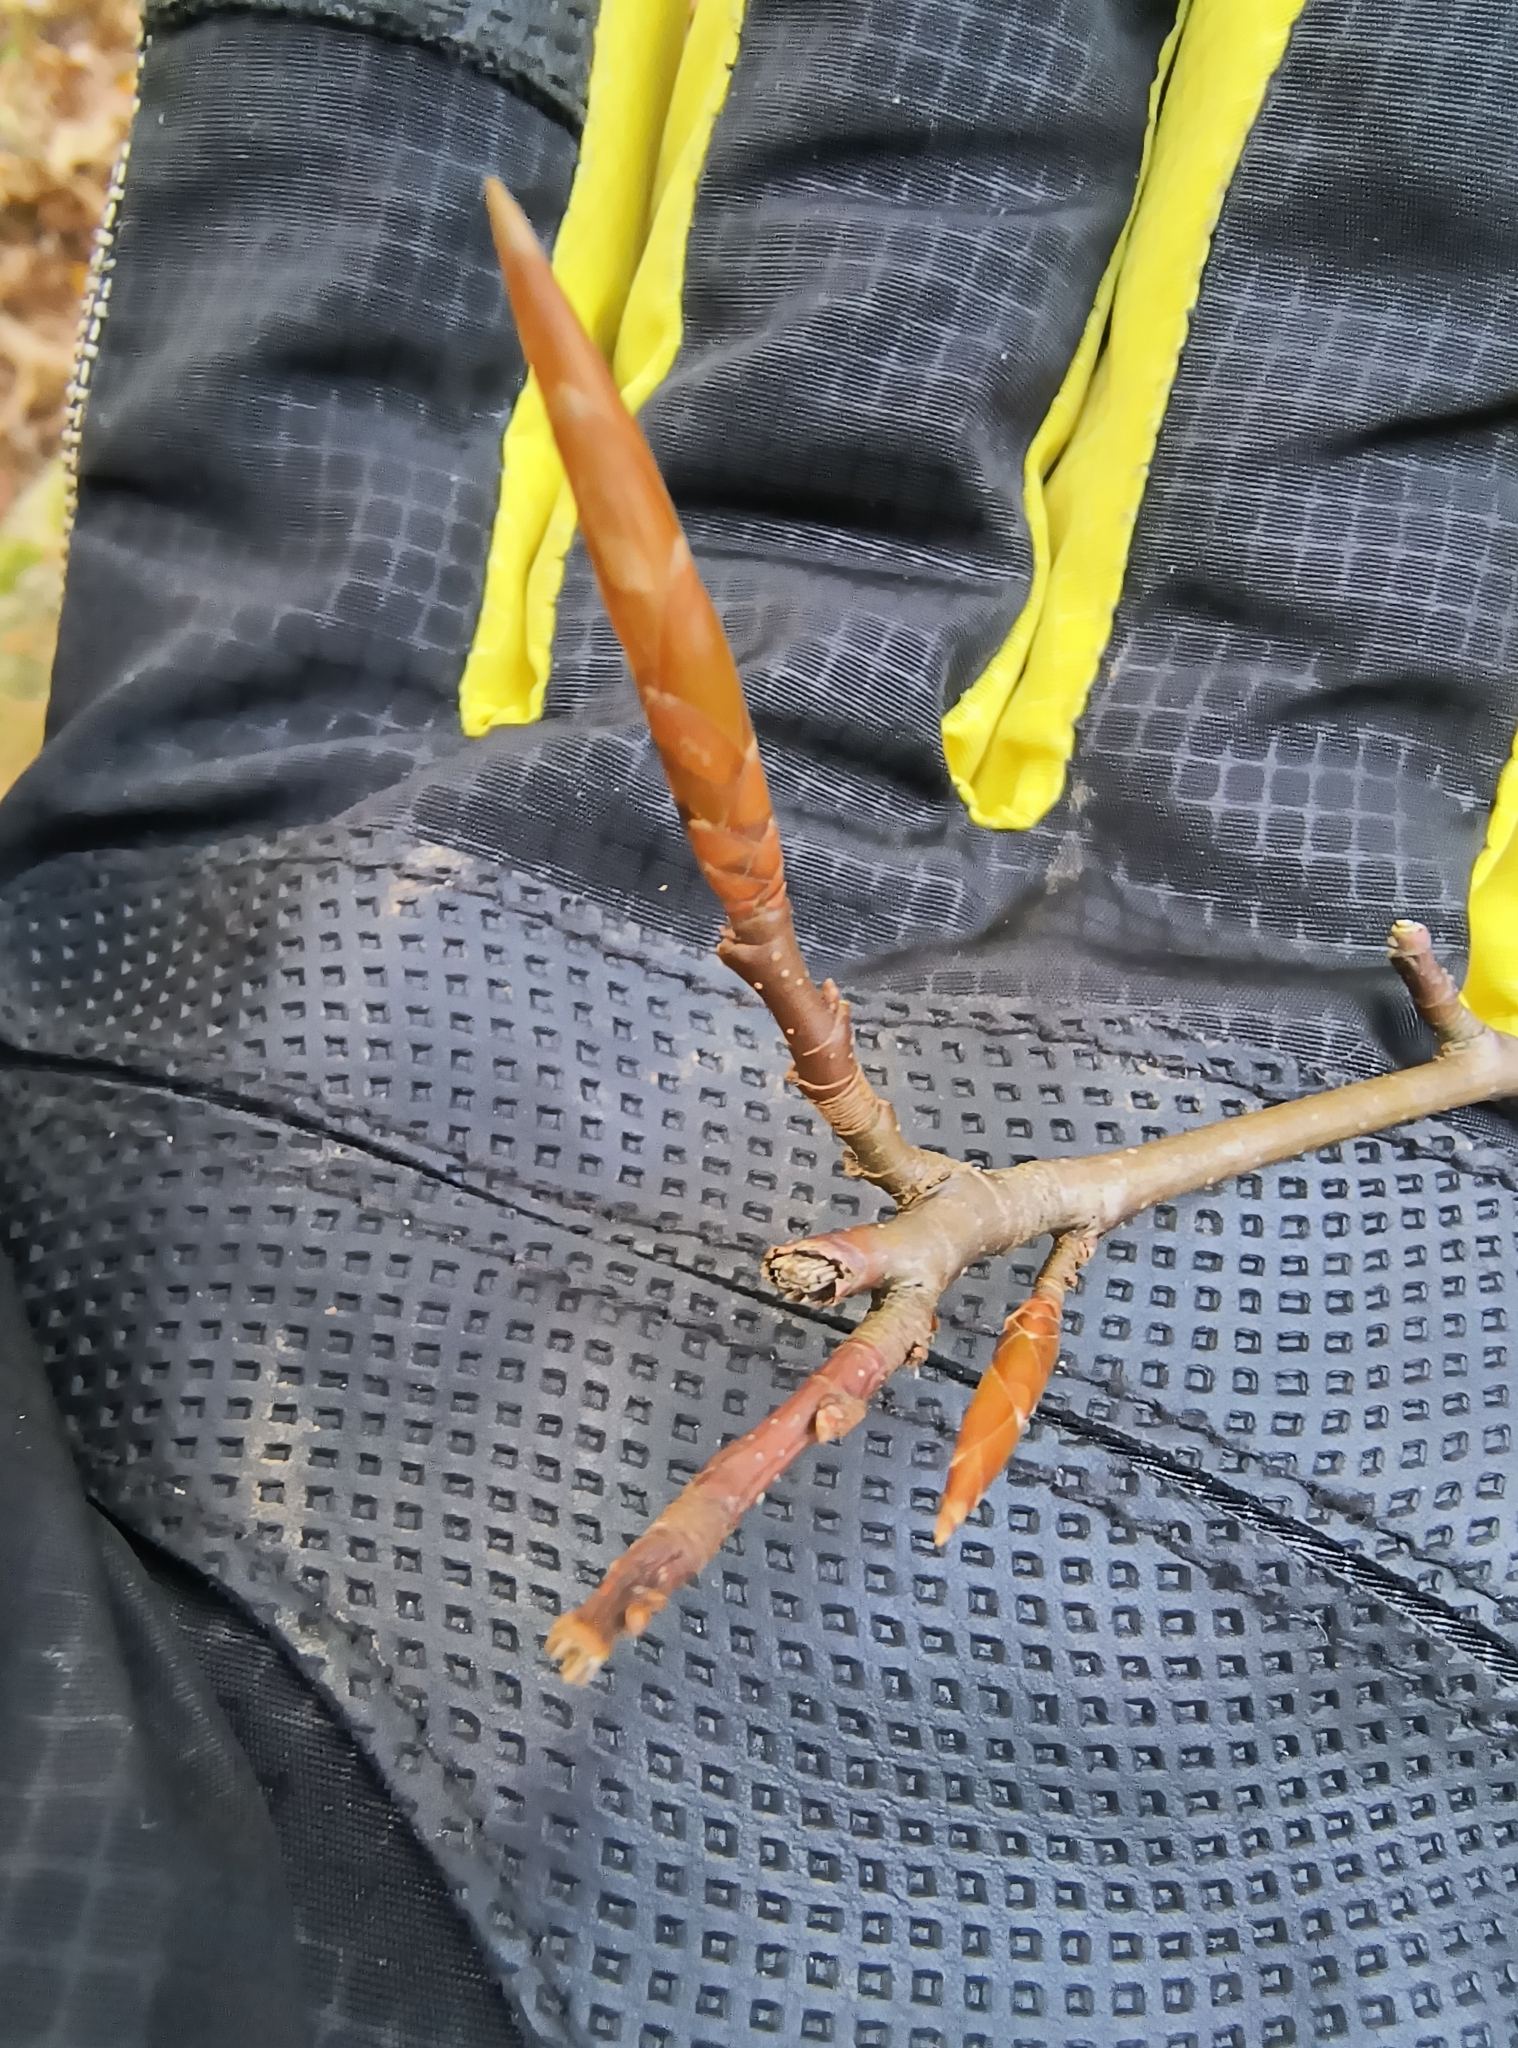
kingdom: Plantae
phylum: Tracheophyta
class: Magnoliopsida
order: Fagales
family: Fagaceae
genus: Fagus
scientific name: Fagus grandifolia
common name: American beech
